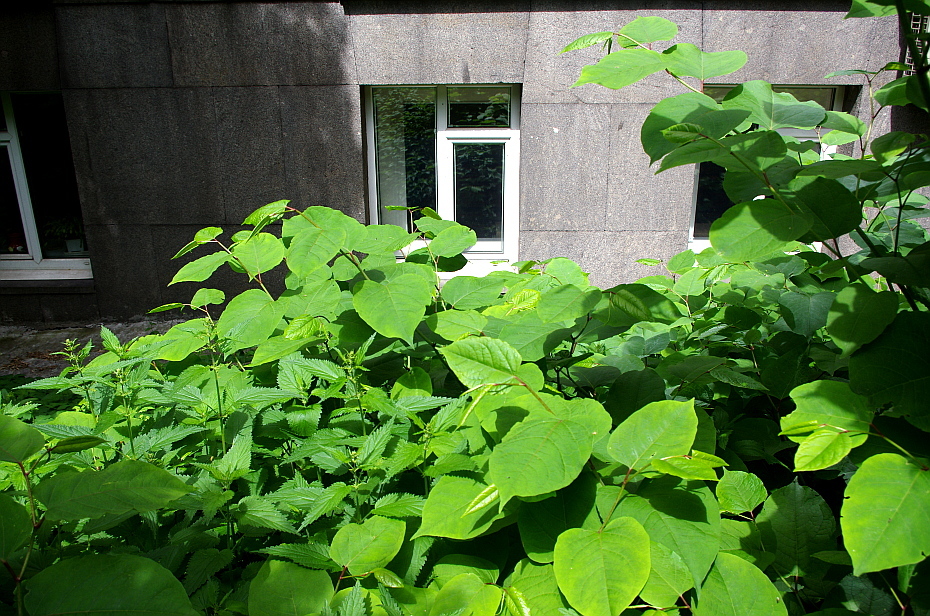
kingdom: Plantae
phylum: Tracheophyta
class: Magnoliopsida
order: Rosales
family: Urticaceae
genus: Urtica
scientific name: Urtica dioica
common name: Common nettle
